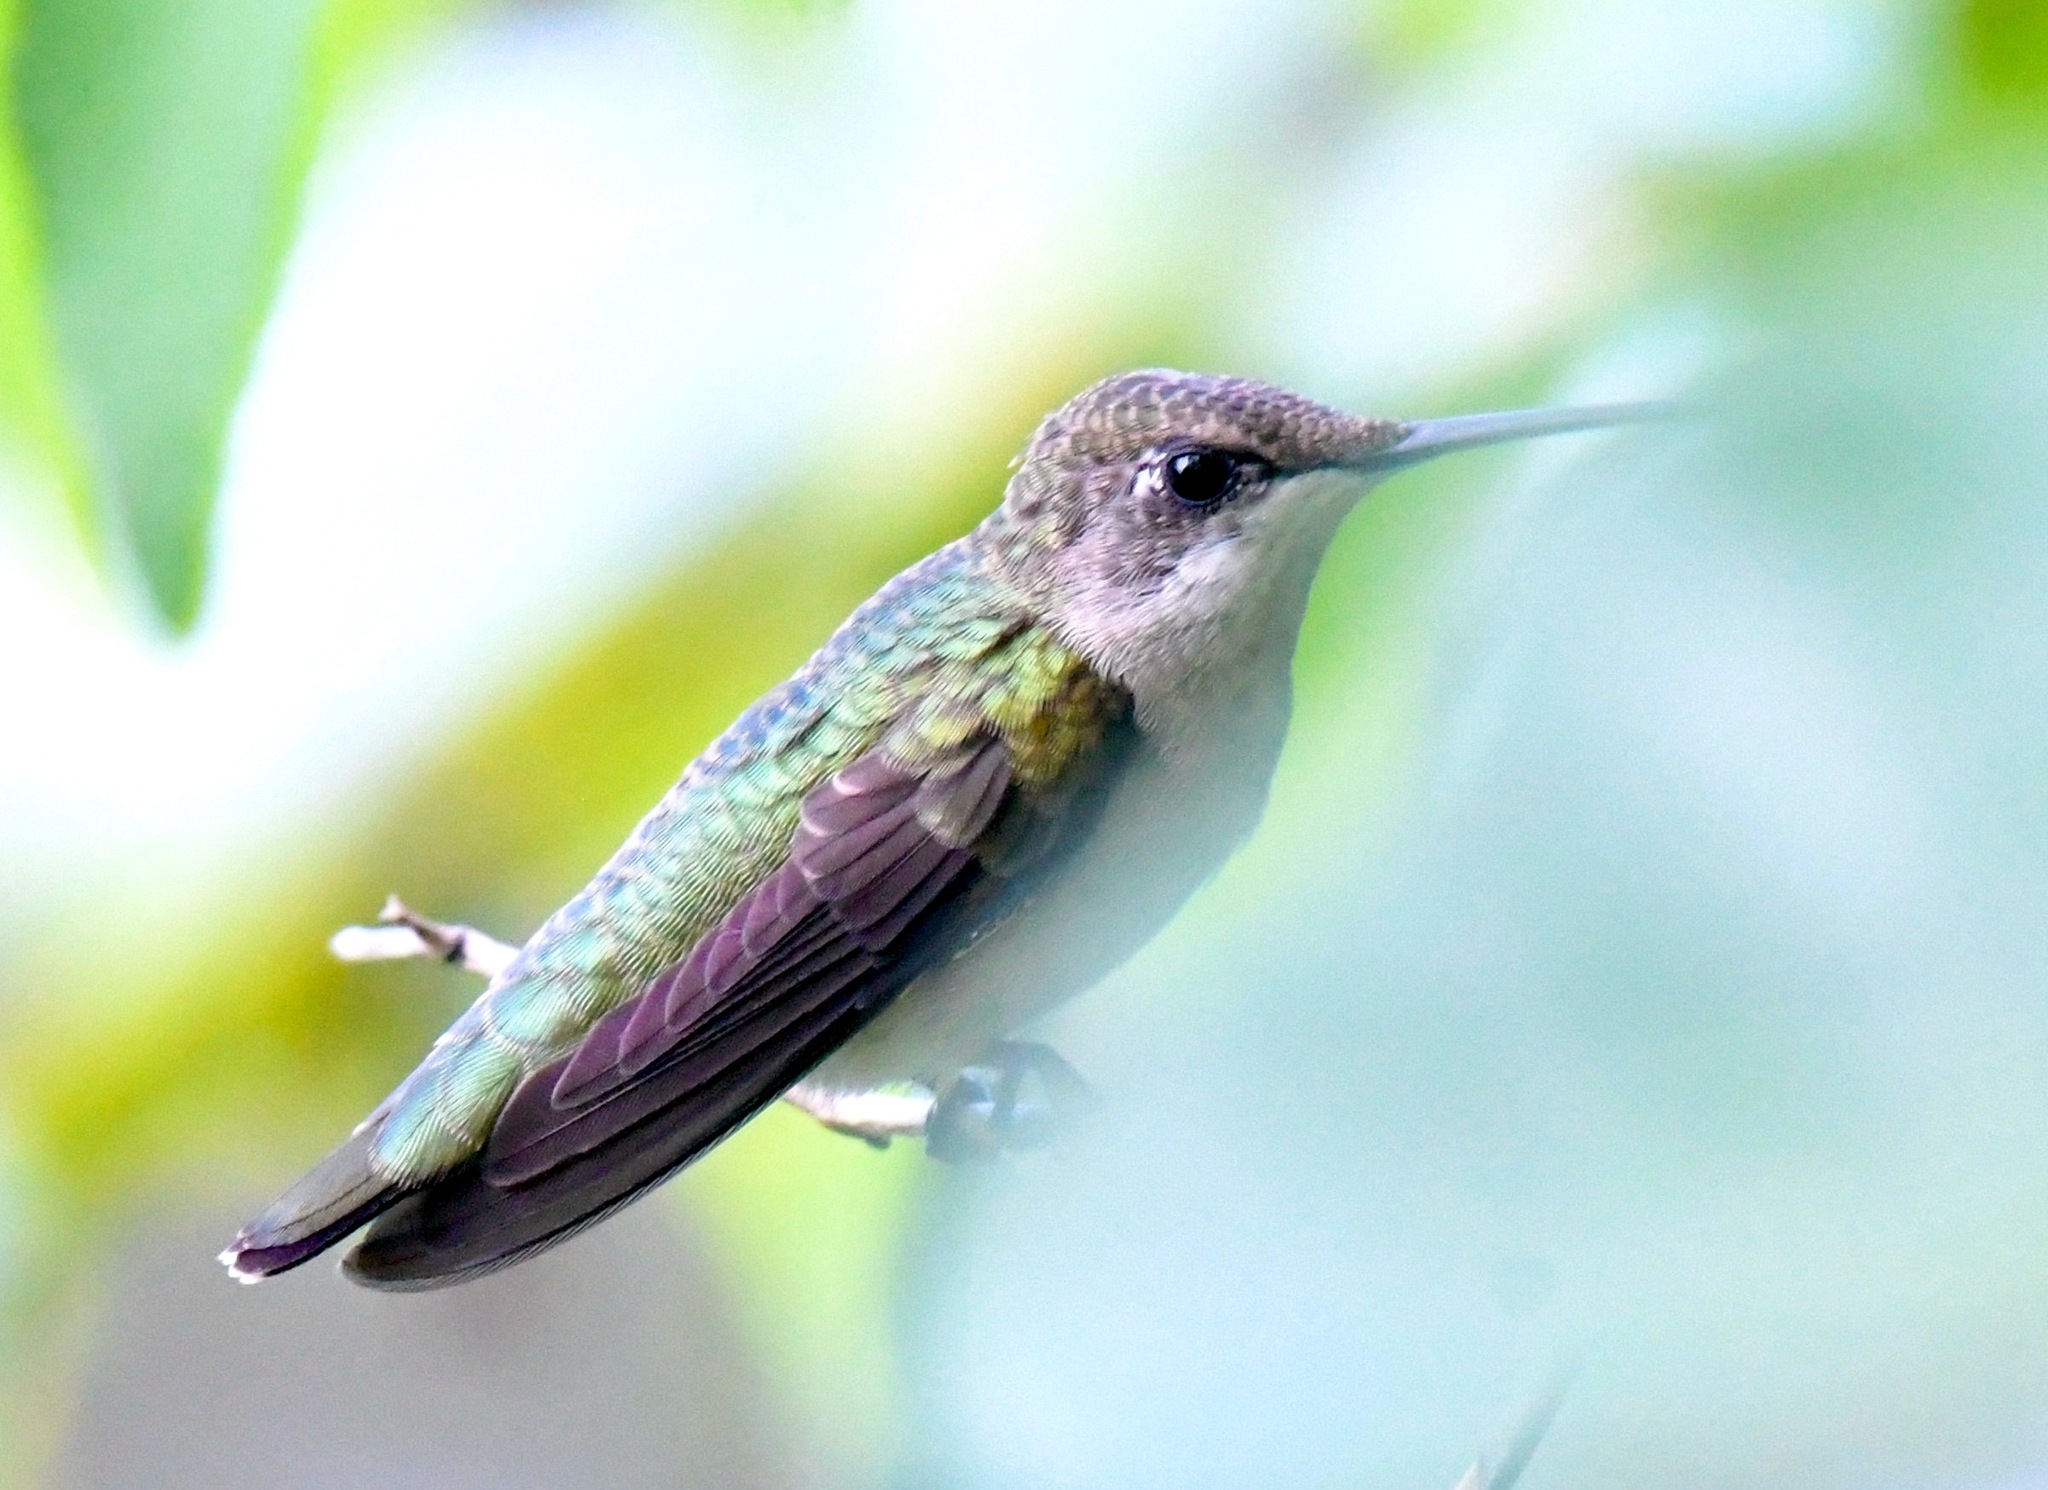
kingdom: Animalia
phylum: Chordata
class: Aves
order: Apodiformes
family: Trochilidae
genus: Archilochus
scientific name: Archilochus colubris
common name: Ruby-throated hummingbird
